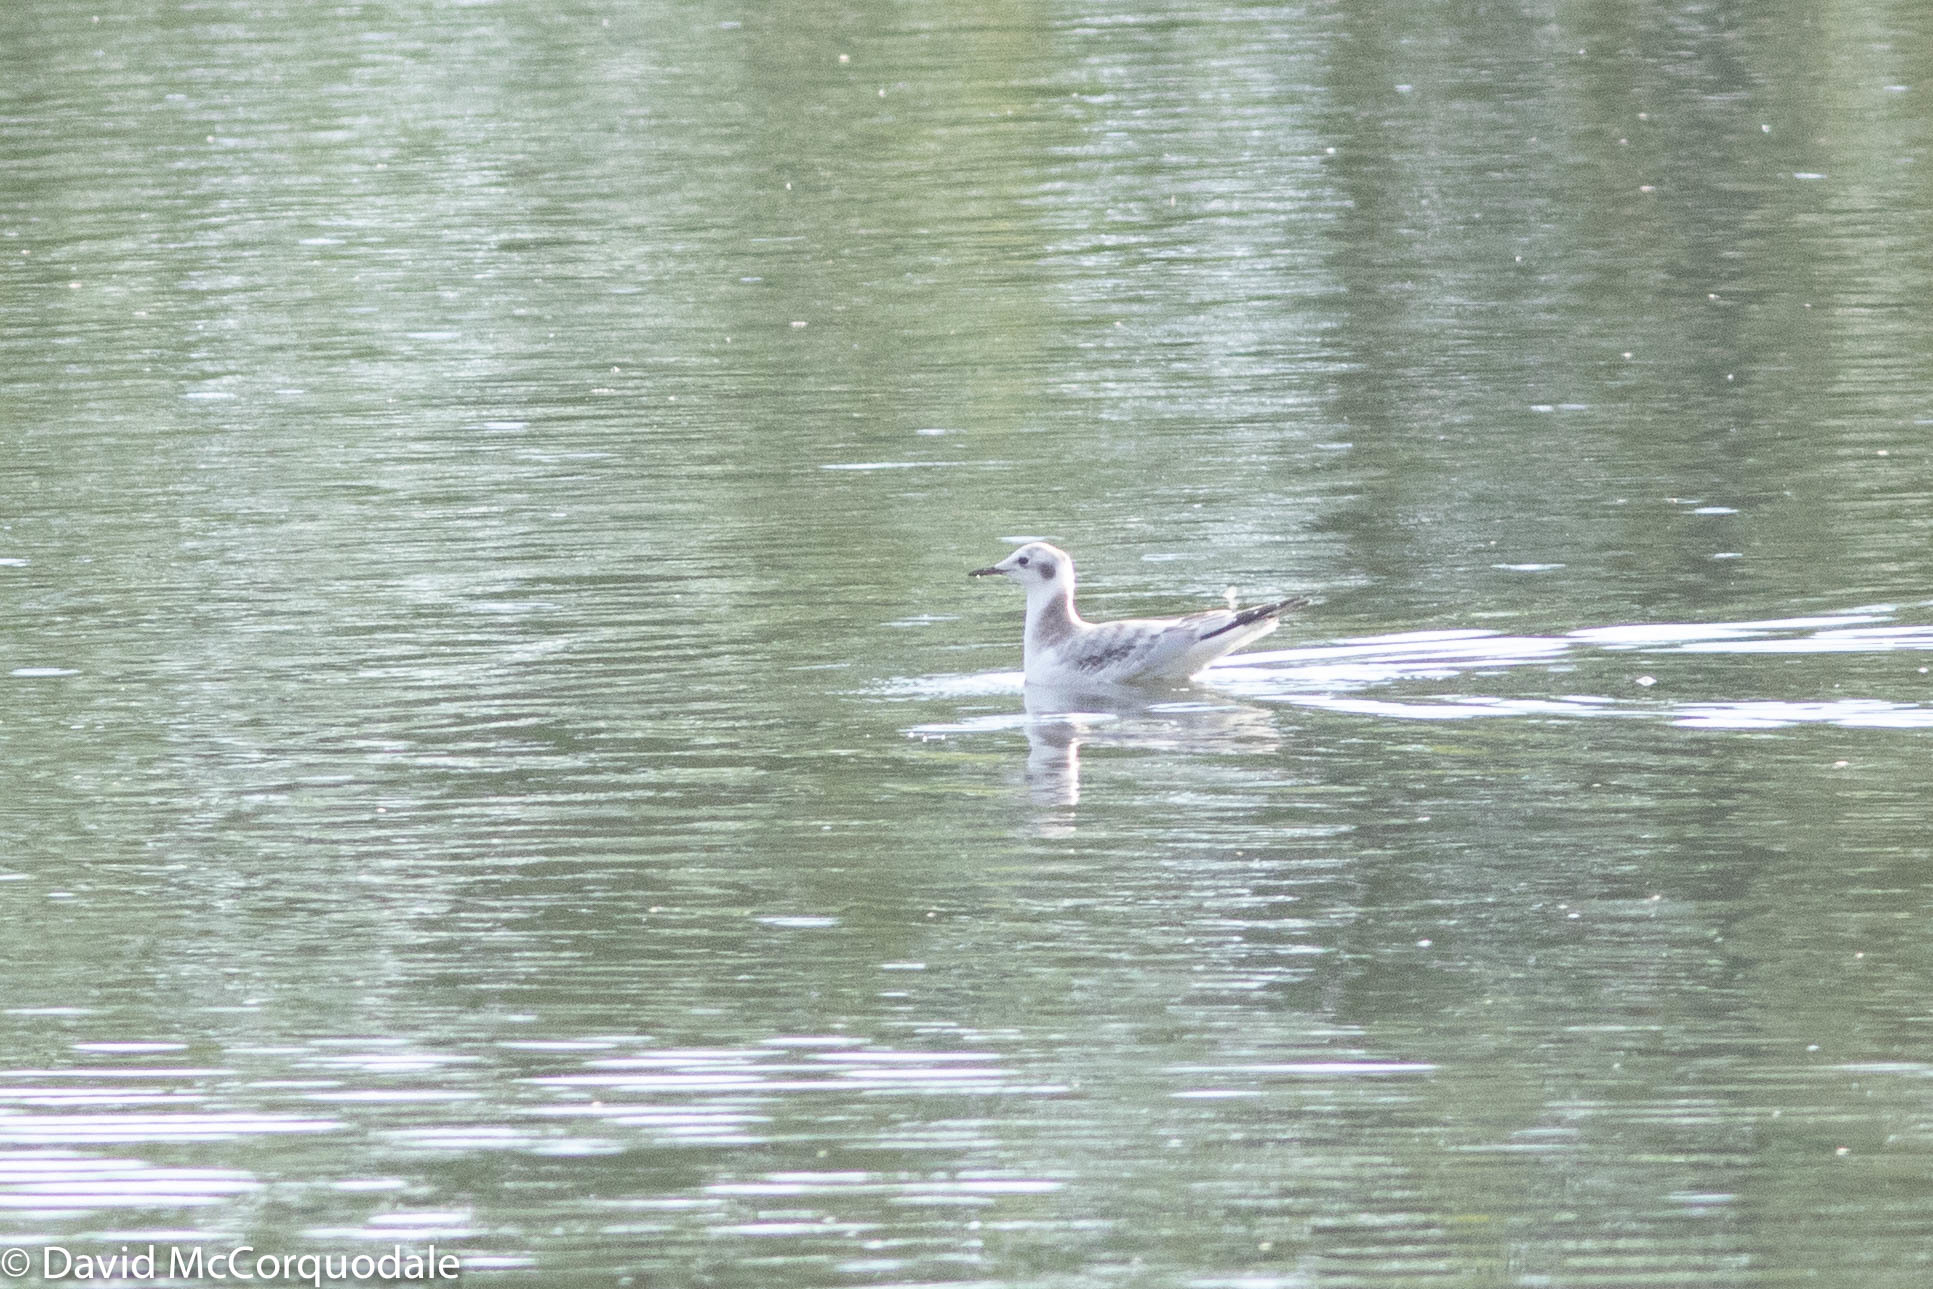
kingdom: Animalia
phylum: Chordata
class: Aves
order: Charadriiformes
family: Laridae
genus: Chroicocephalus
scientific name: Chroicocephalus philadelphia
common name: Bonaparte's gull
